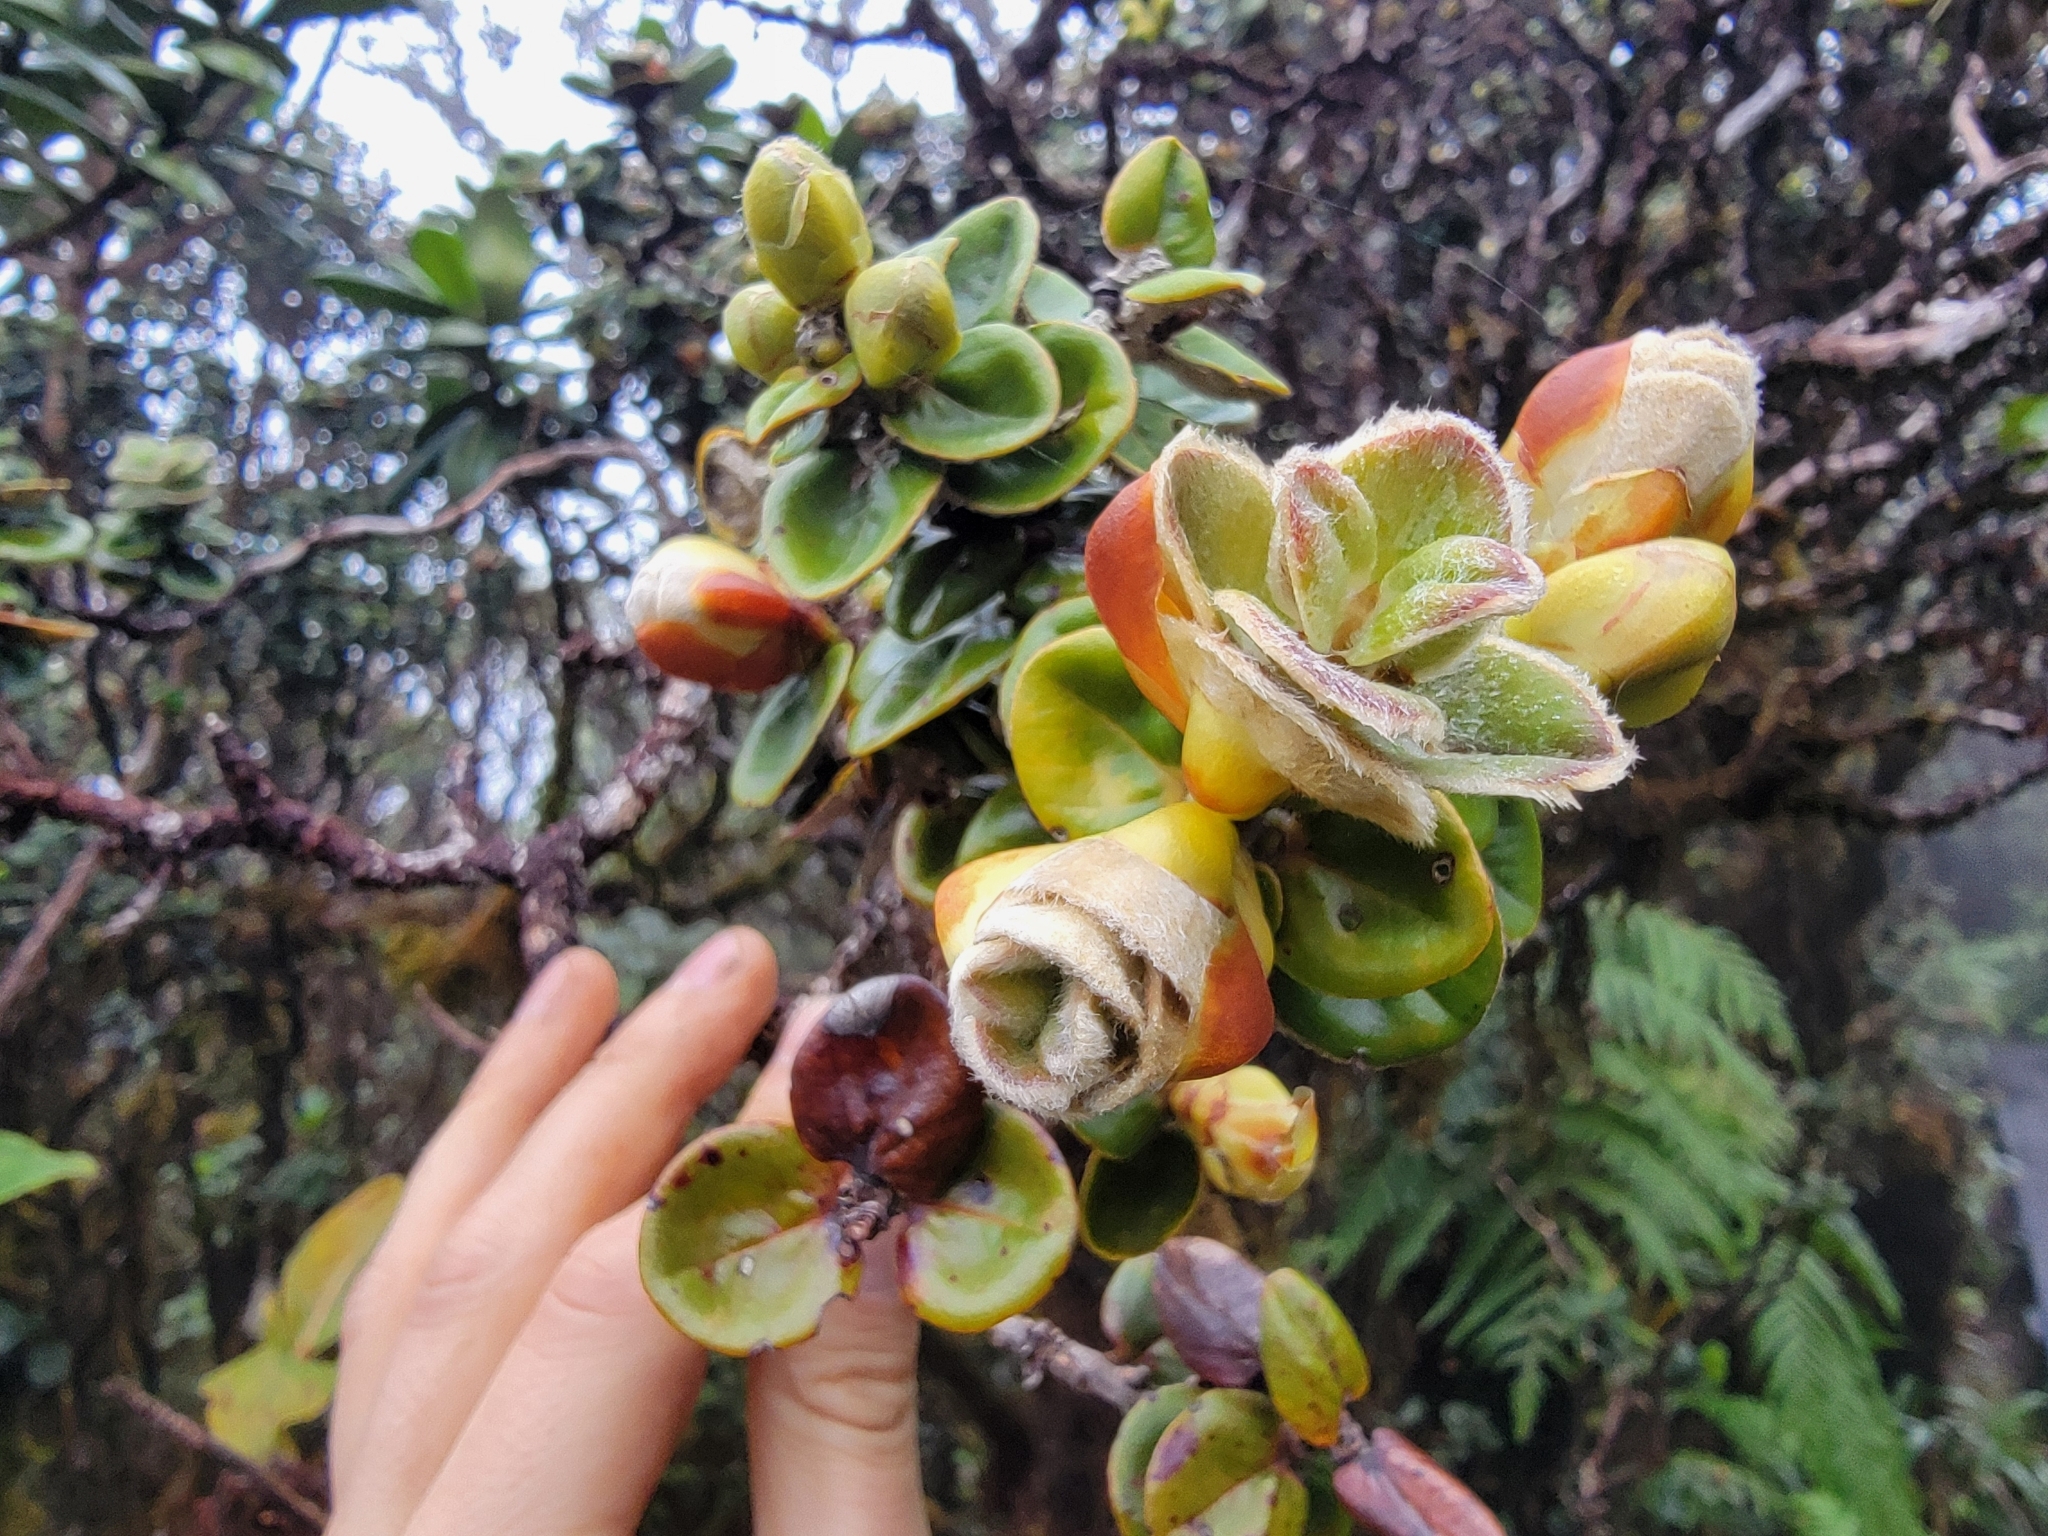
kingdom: Plantae
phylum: Tracheophyta
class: Magnoliopsida
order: Myrtales
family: Myrtaceae
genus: Metrosideros
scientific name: Metrosideros polymorpha
